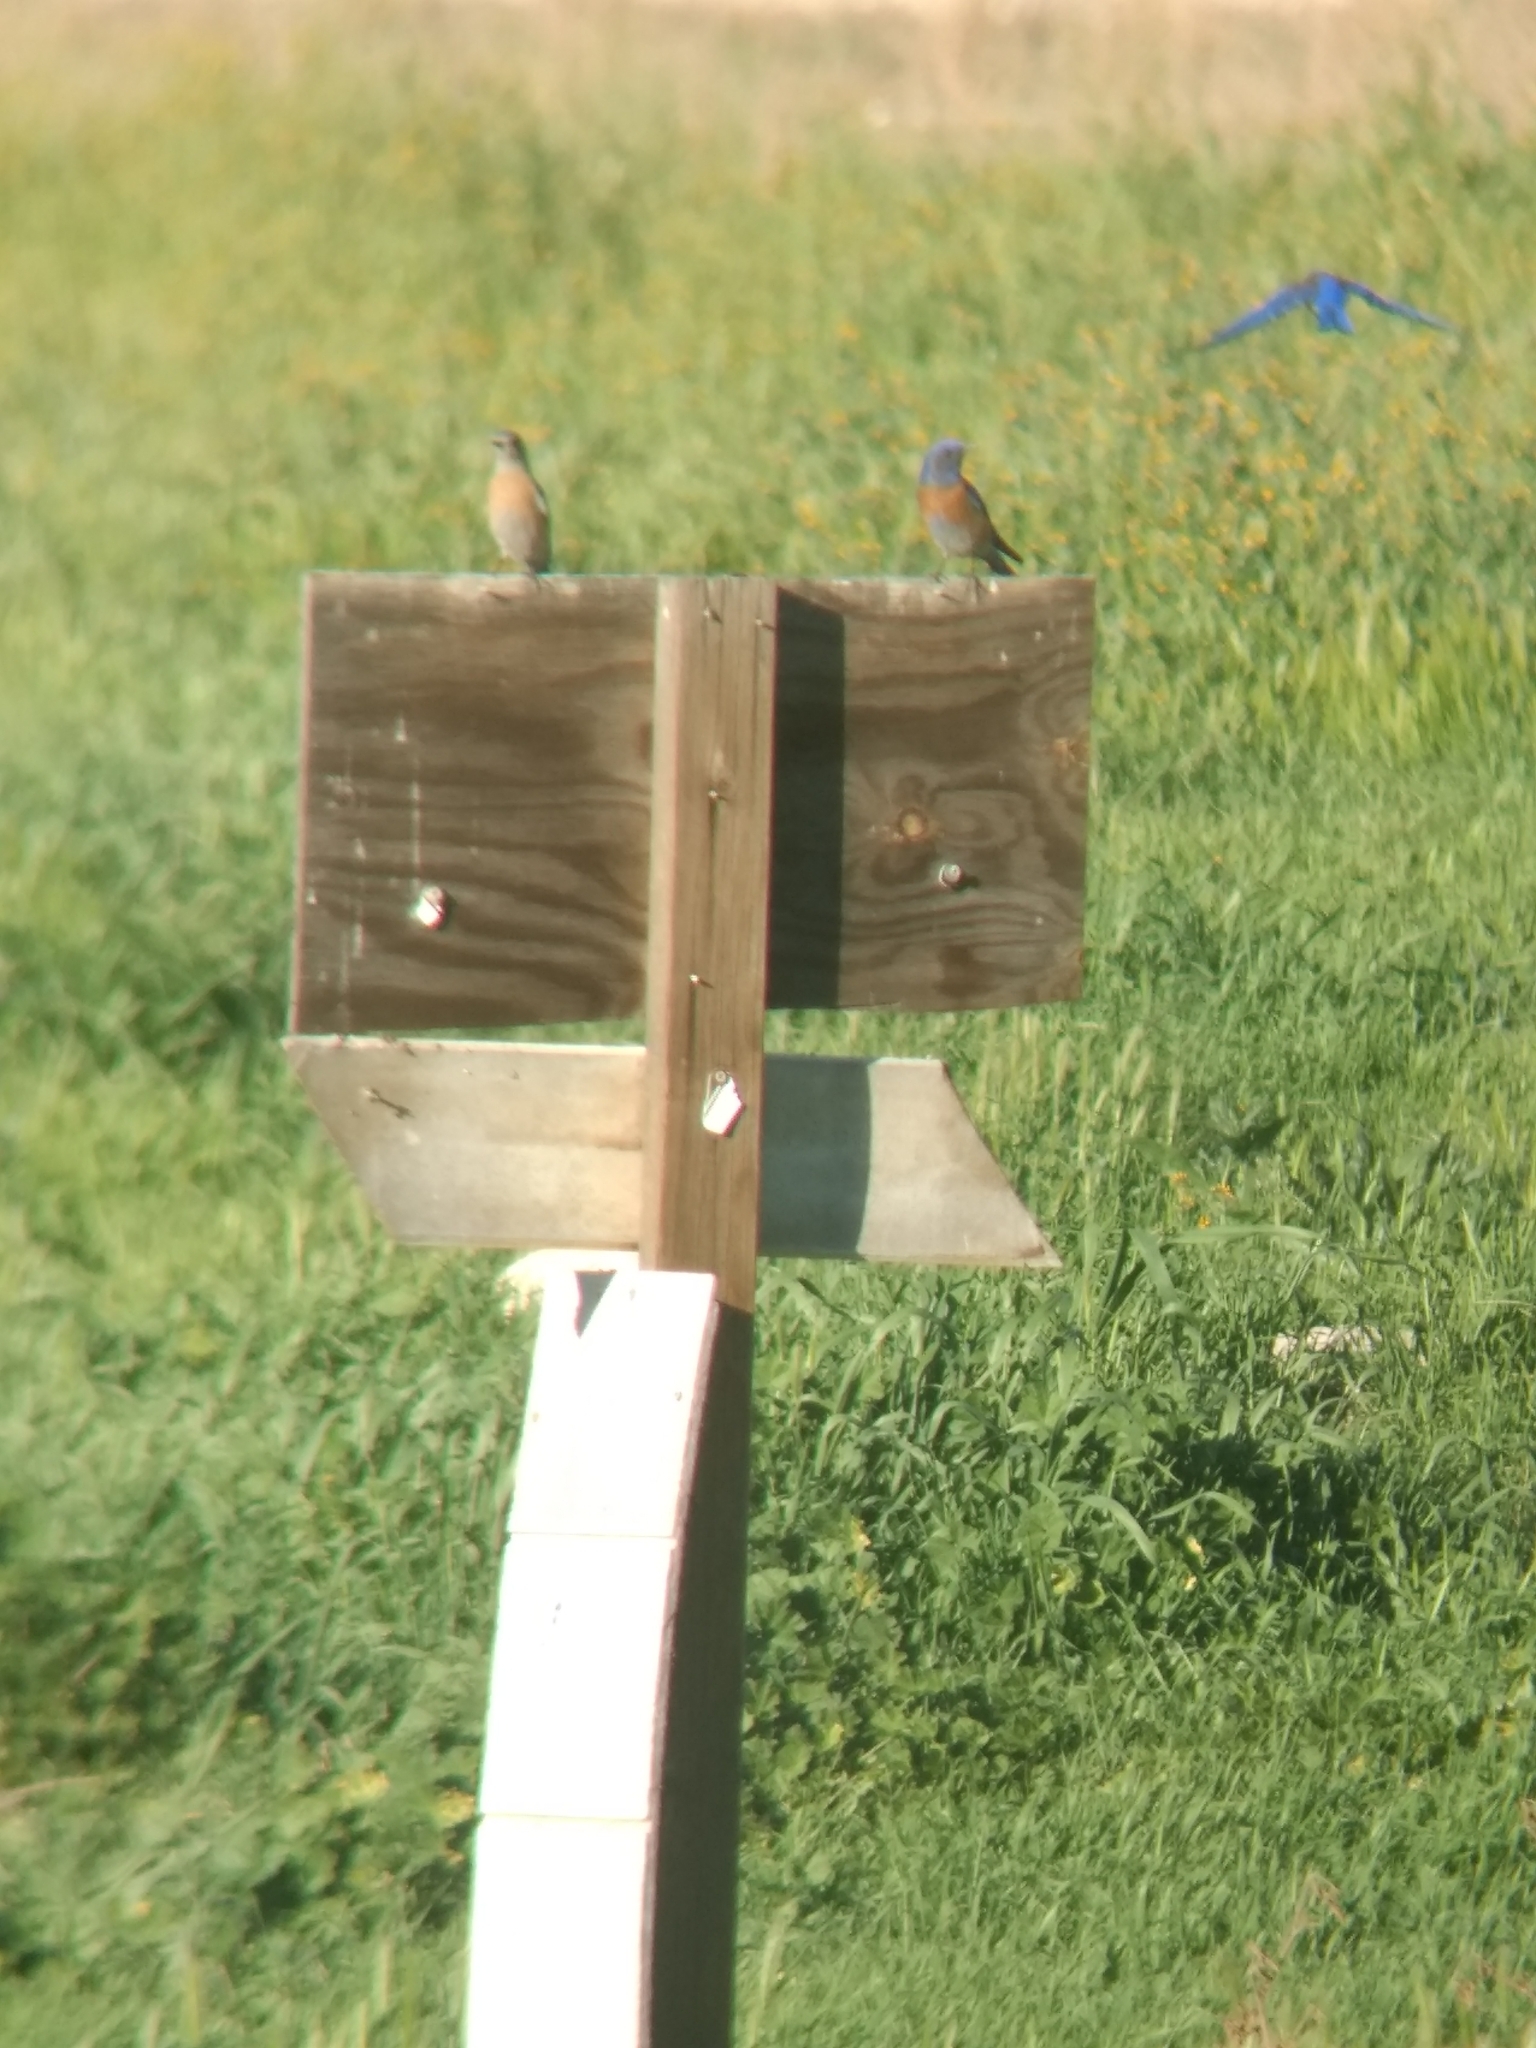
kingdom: Animalia
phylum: Chordata
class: Aves
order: Passeriformes
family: Turdidae
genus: Sialia
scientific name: Sialia mexicana
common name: Western bluebird
